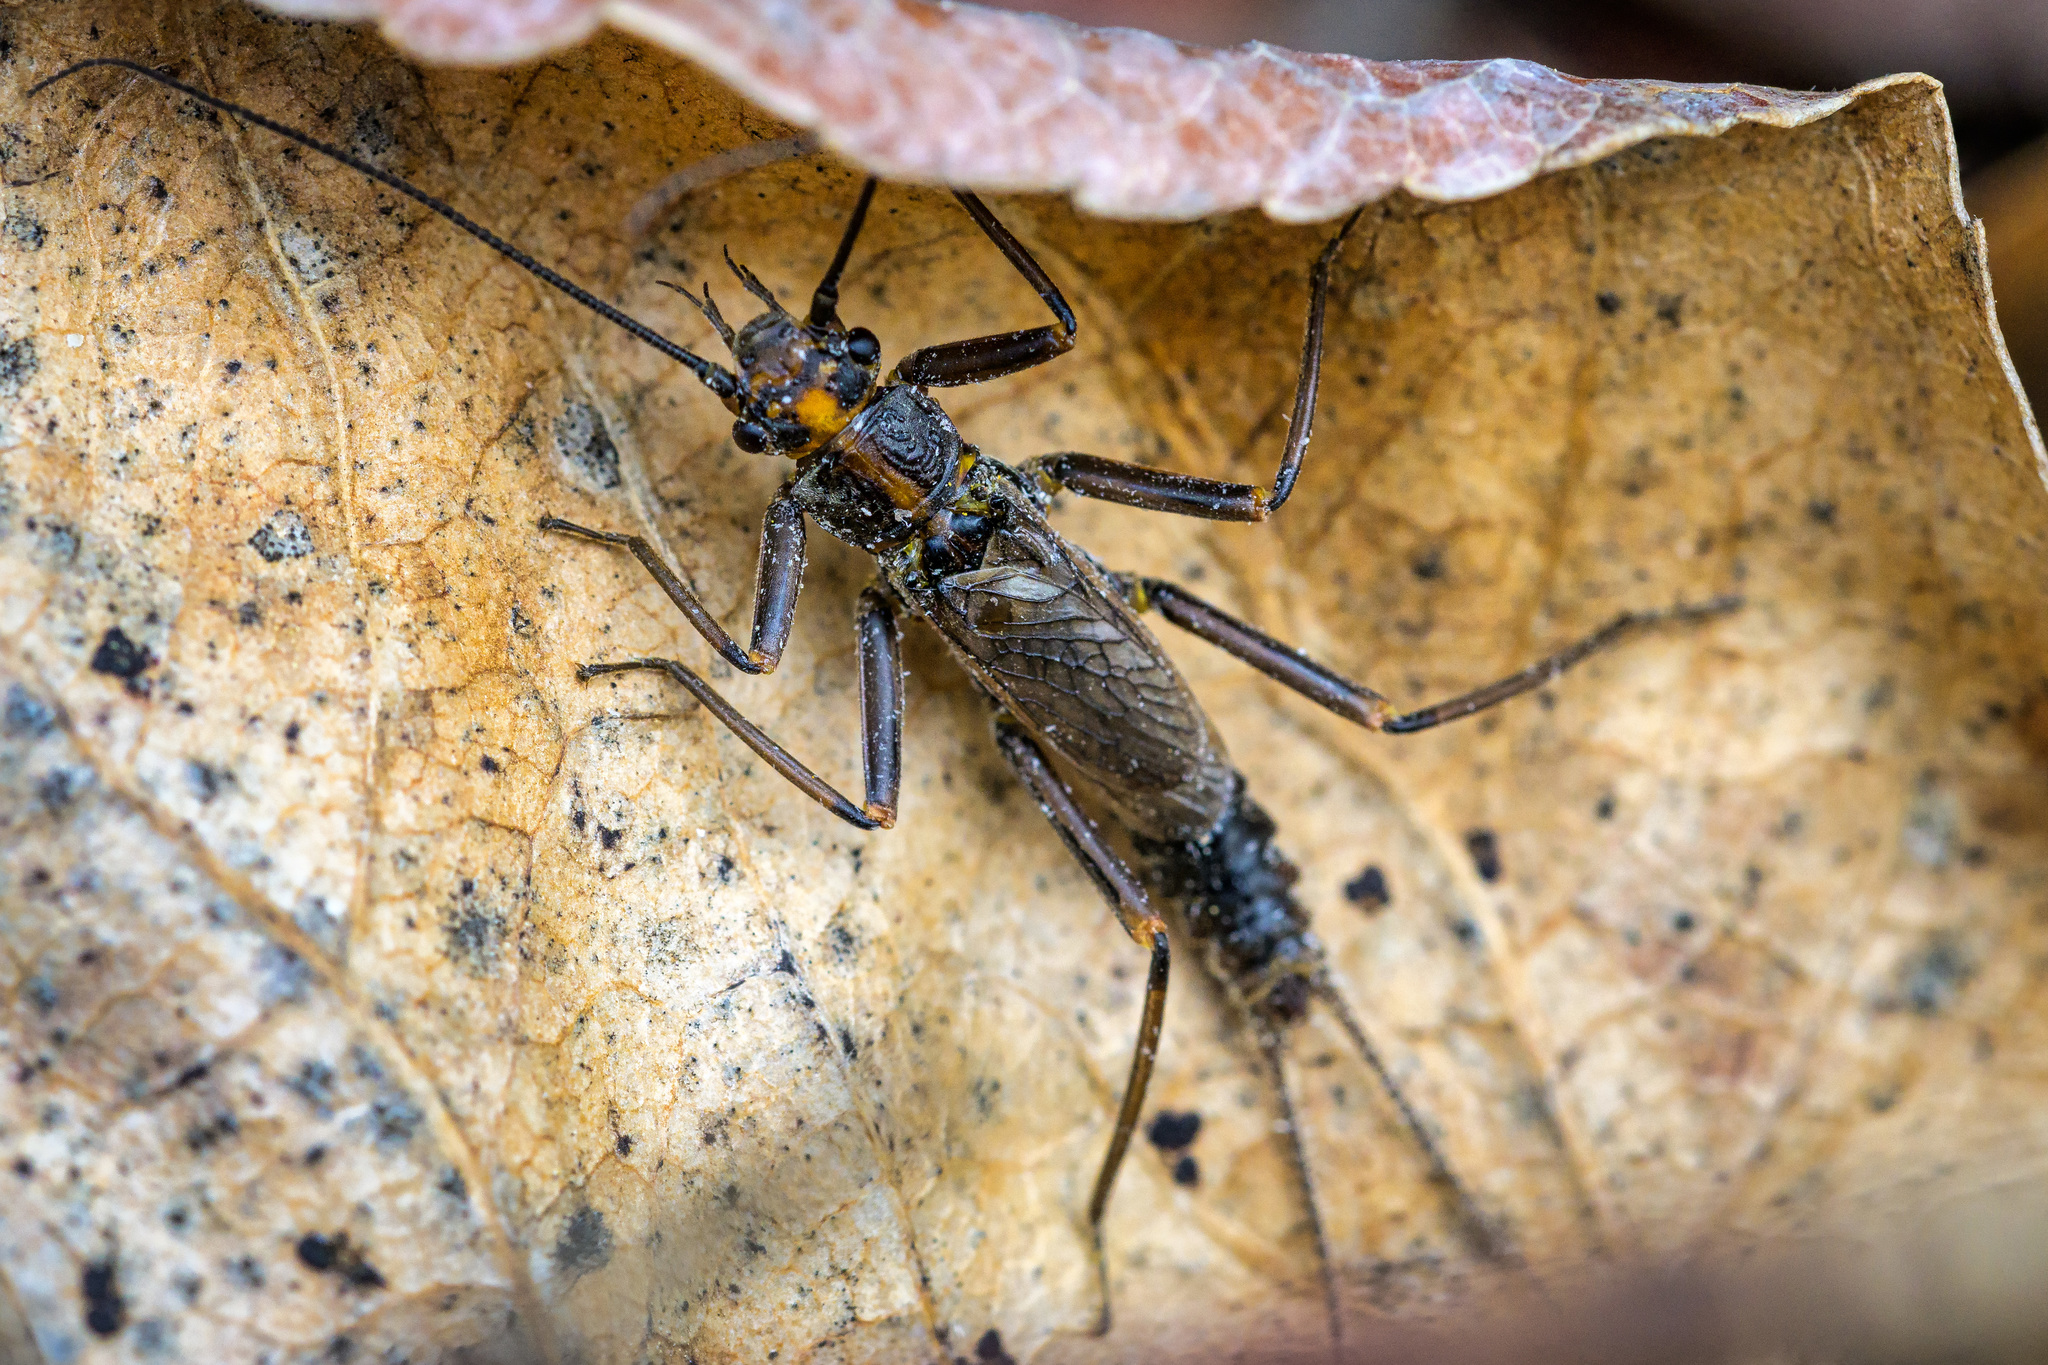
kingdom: Animalia
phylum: Arthropoda
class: Insecta
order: Plecoptera
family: Perlodidae
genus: Skwala
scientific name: Skwala americana
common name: American springfly
